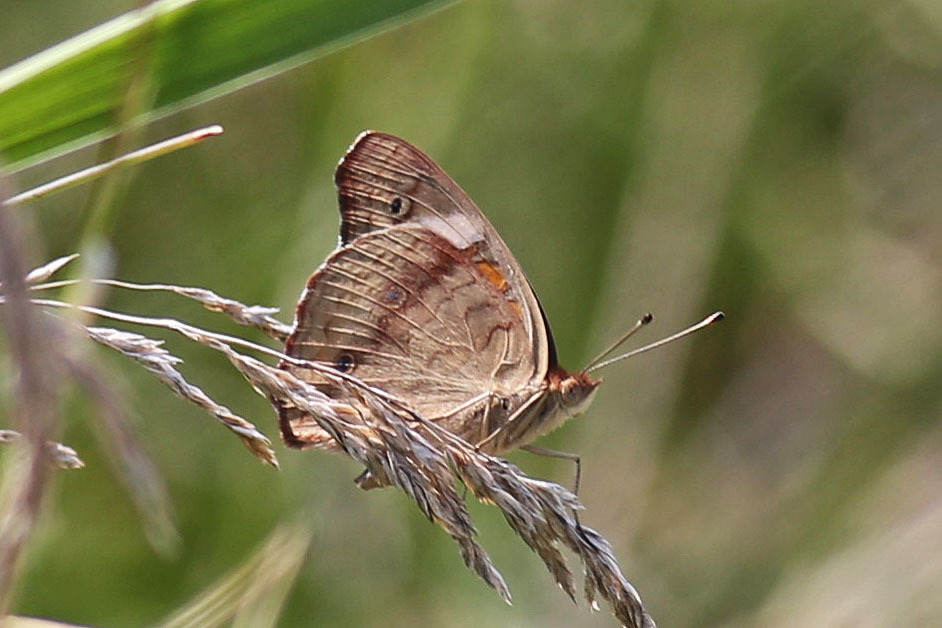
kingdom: Animalia
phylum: Arthropoda
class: Insecta
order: Lepidoptera
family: Nymphalidae
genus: Junonia
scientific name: Junonia coenia
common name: Common buckeye
